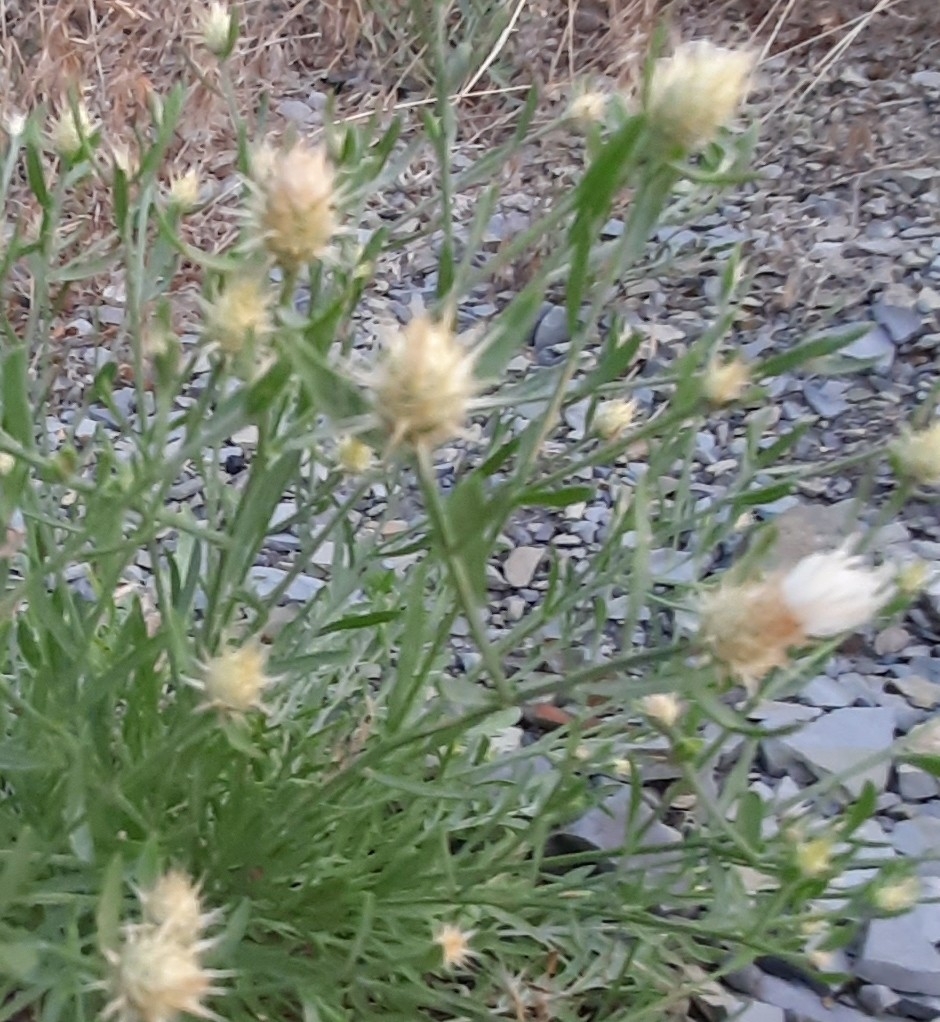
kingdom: Plantae
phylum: Tracheophyta
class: Magnoliopsida
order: Asterales
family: Asteraceae
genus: Centaurea
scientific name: Centaurea diffusa
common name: Diffuse knapweed
